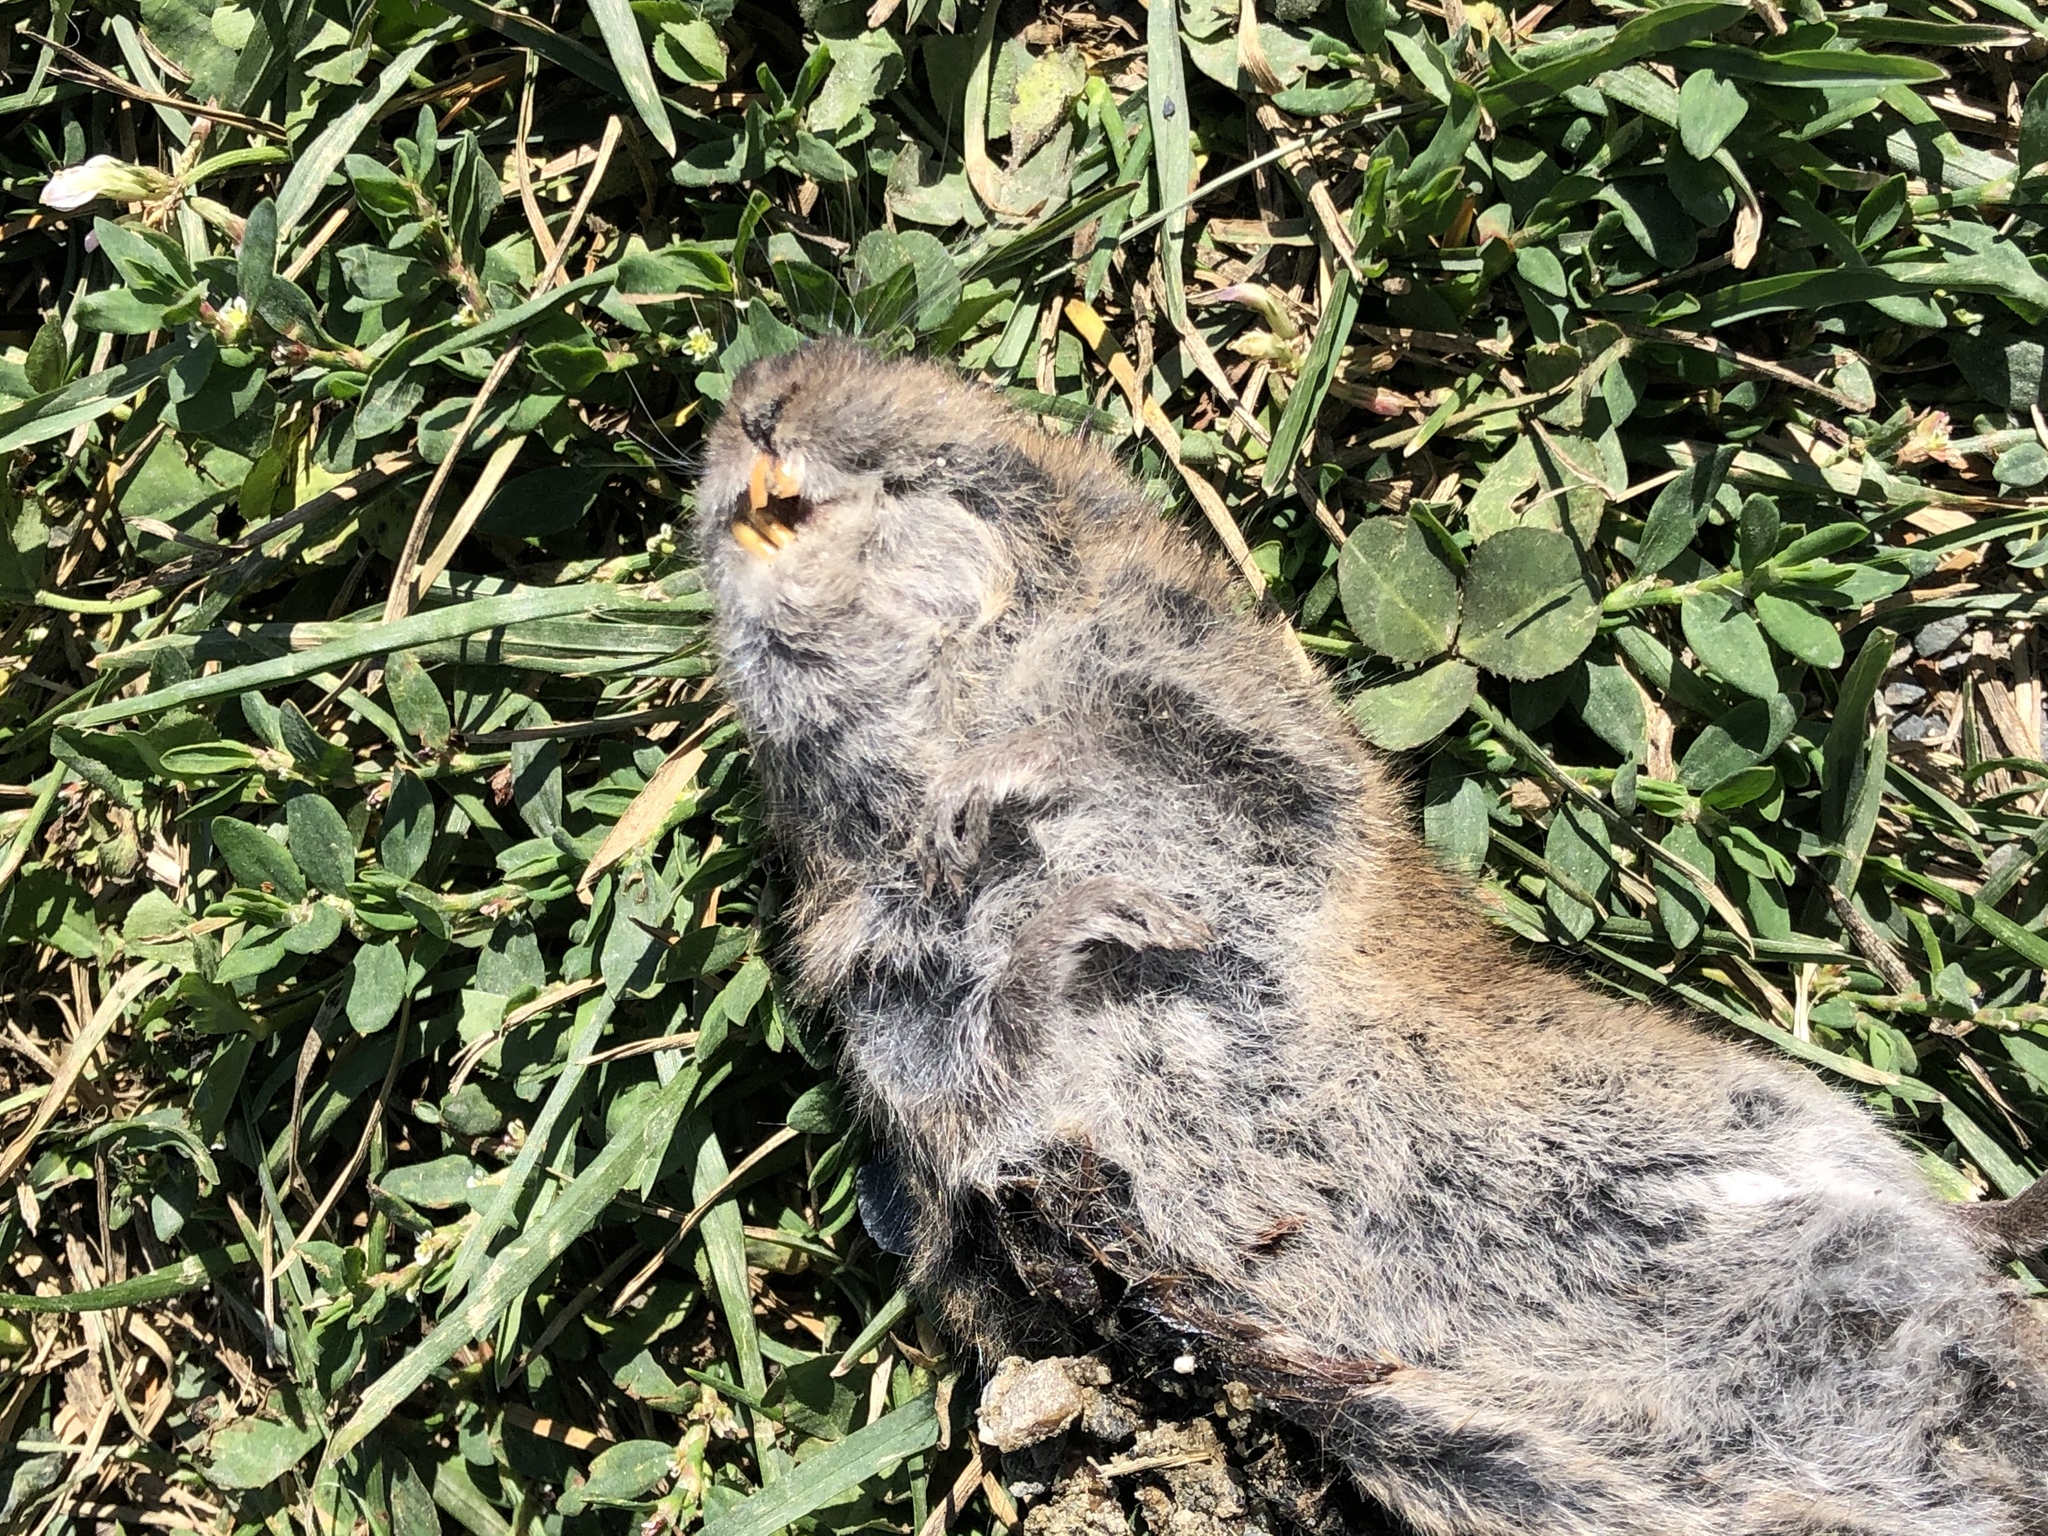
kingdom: Animalia
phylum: Chordata
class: Mammalia
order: Rodentia
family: Cricetidae
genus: Microtus
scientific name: Microtus townsendii
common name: Townsend's vole
